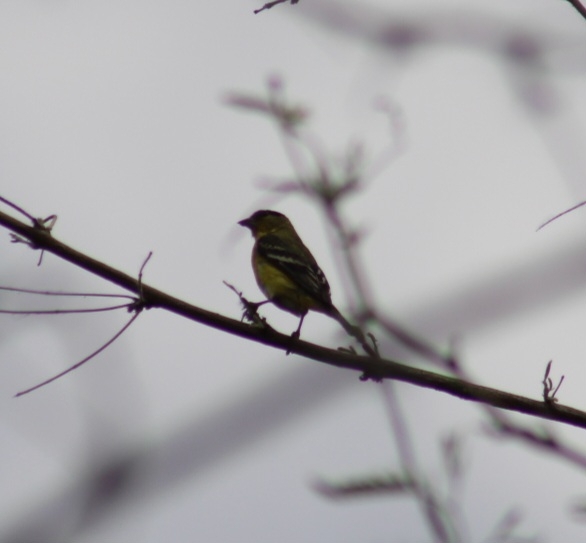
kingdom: Animalia
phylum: Chordata
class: Aves
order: Passeriformes
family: Fringillidae
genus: Spinus
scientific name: Spinus psaltria
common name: Lesser goldfinch
